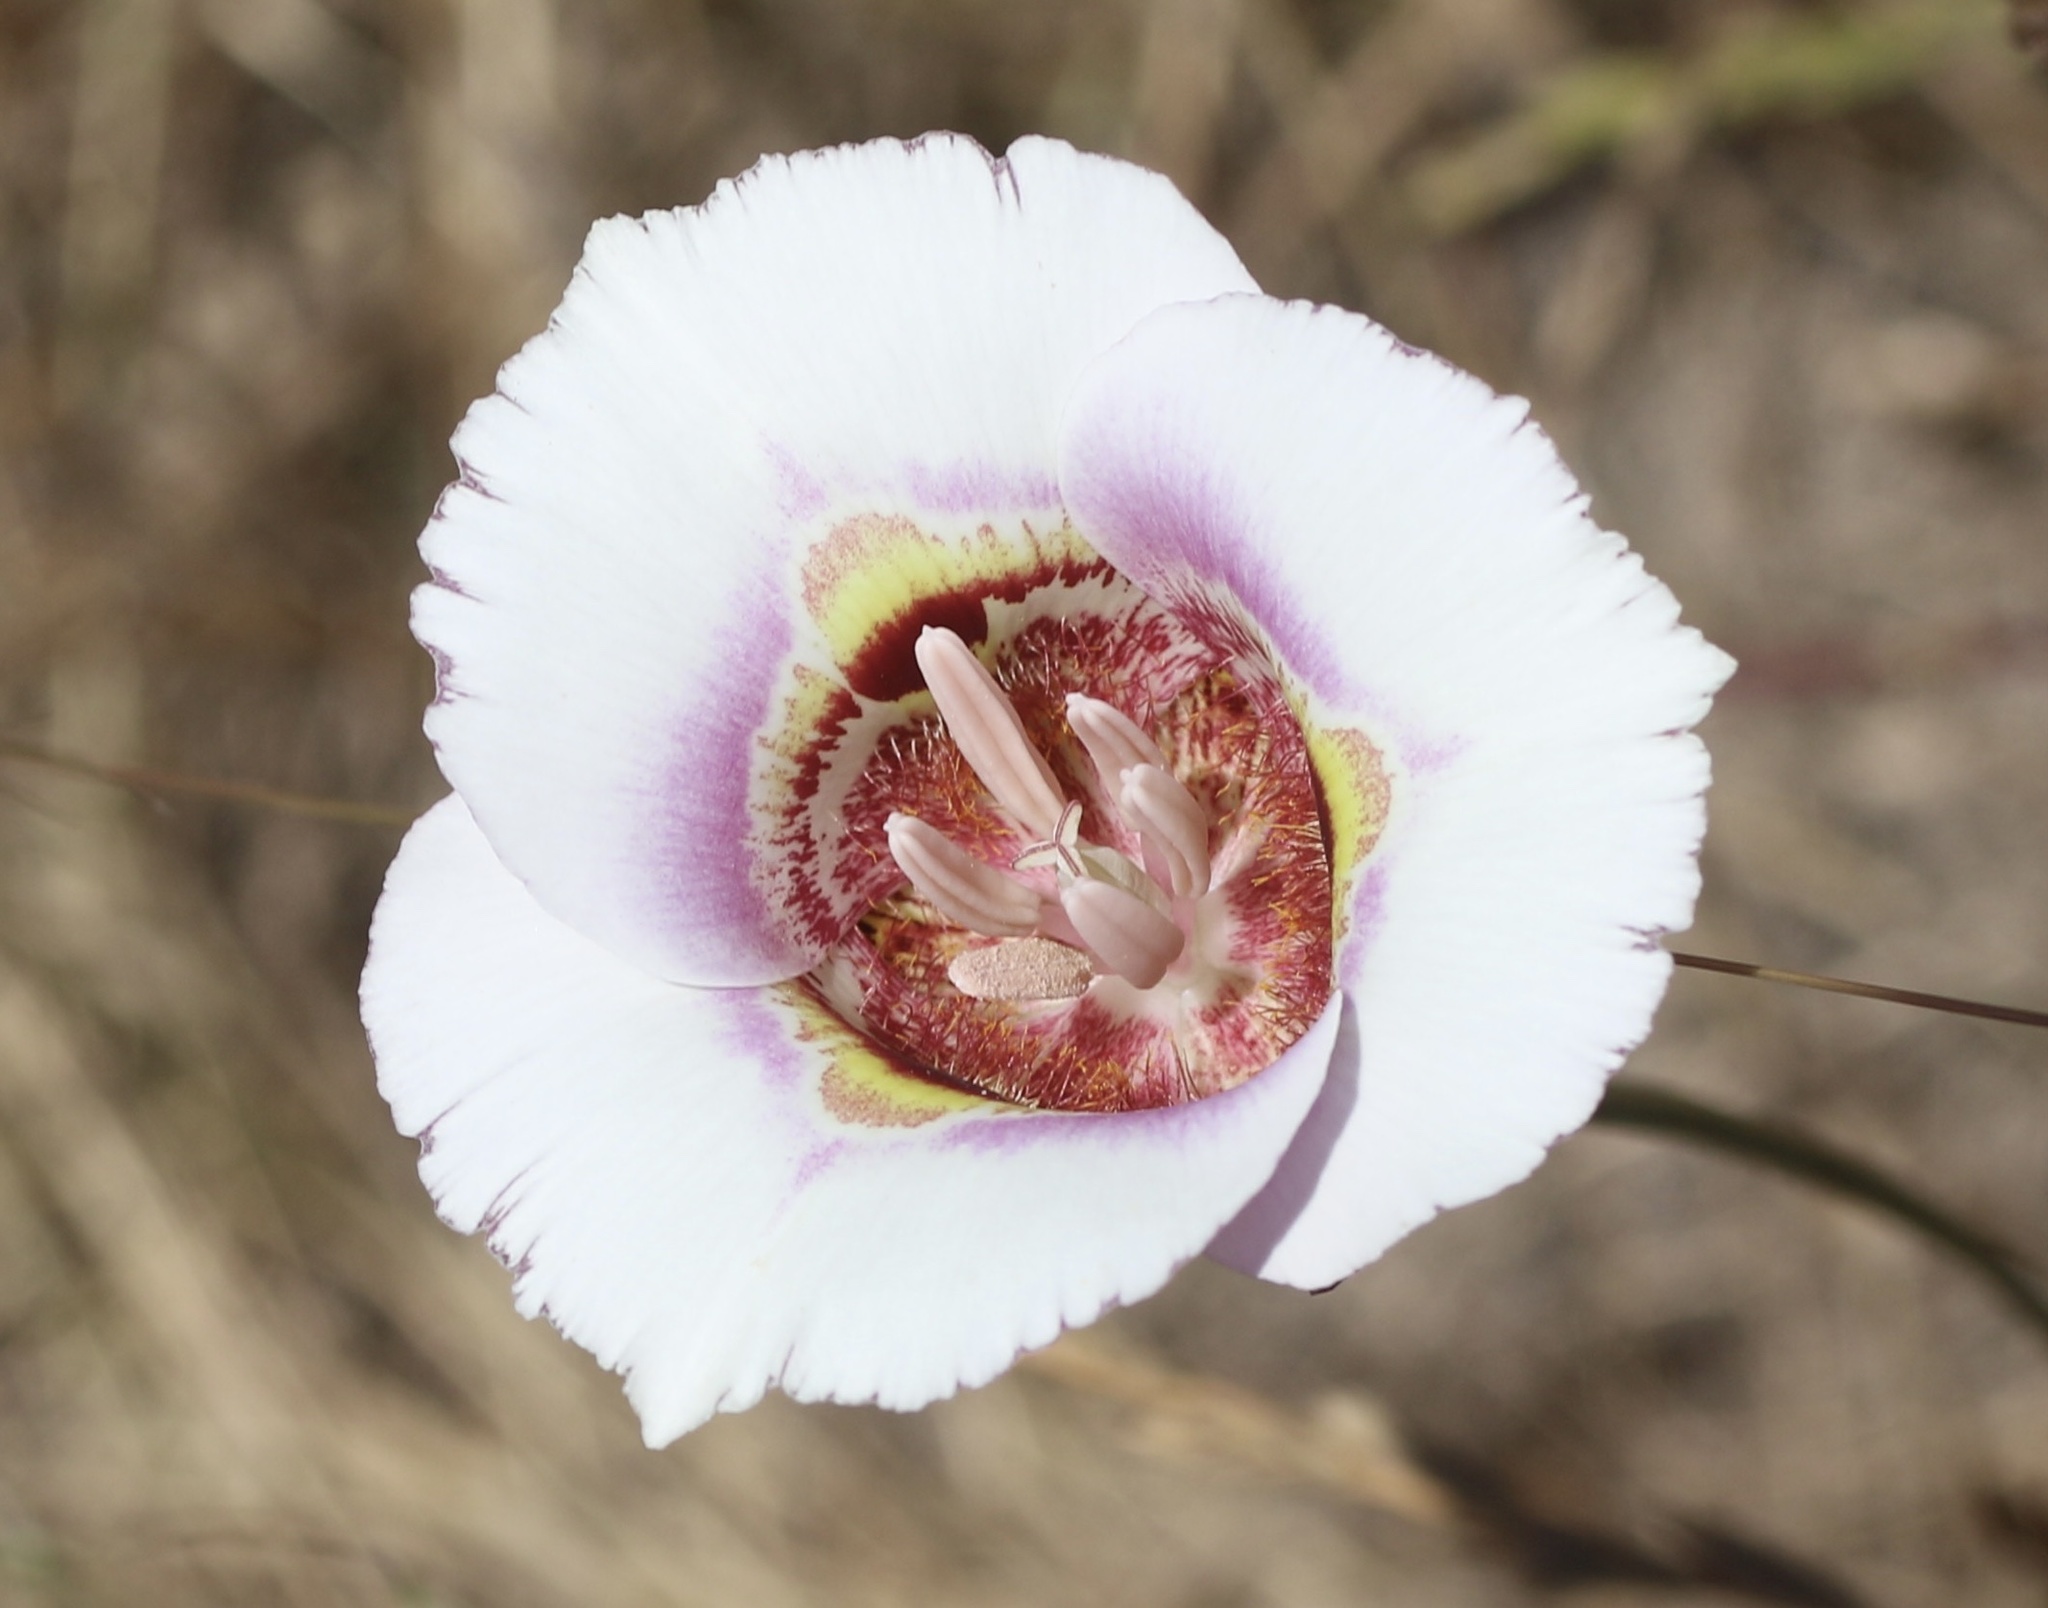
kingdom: Plantae
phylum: Tracheophyta
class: Liliopsida
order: Liliales
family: Liliaceae
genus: Calochortus
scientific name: Calochortus argillosus
